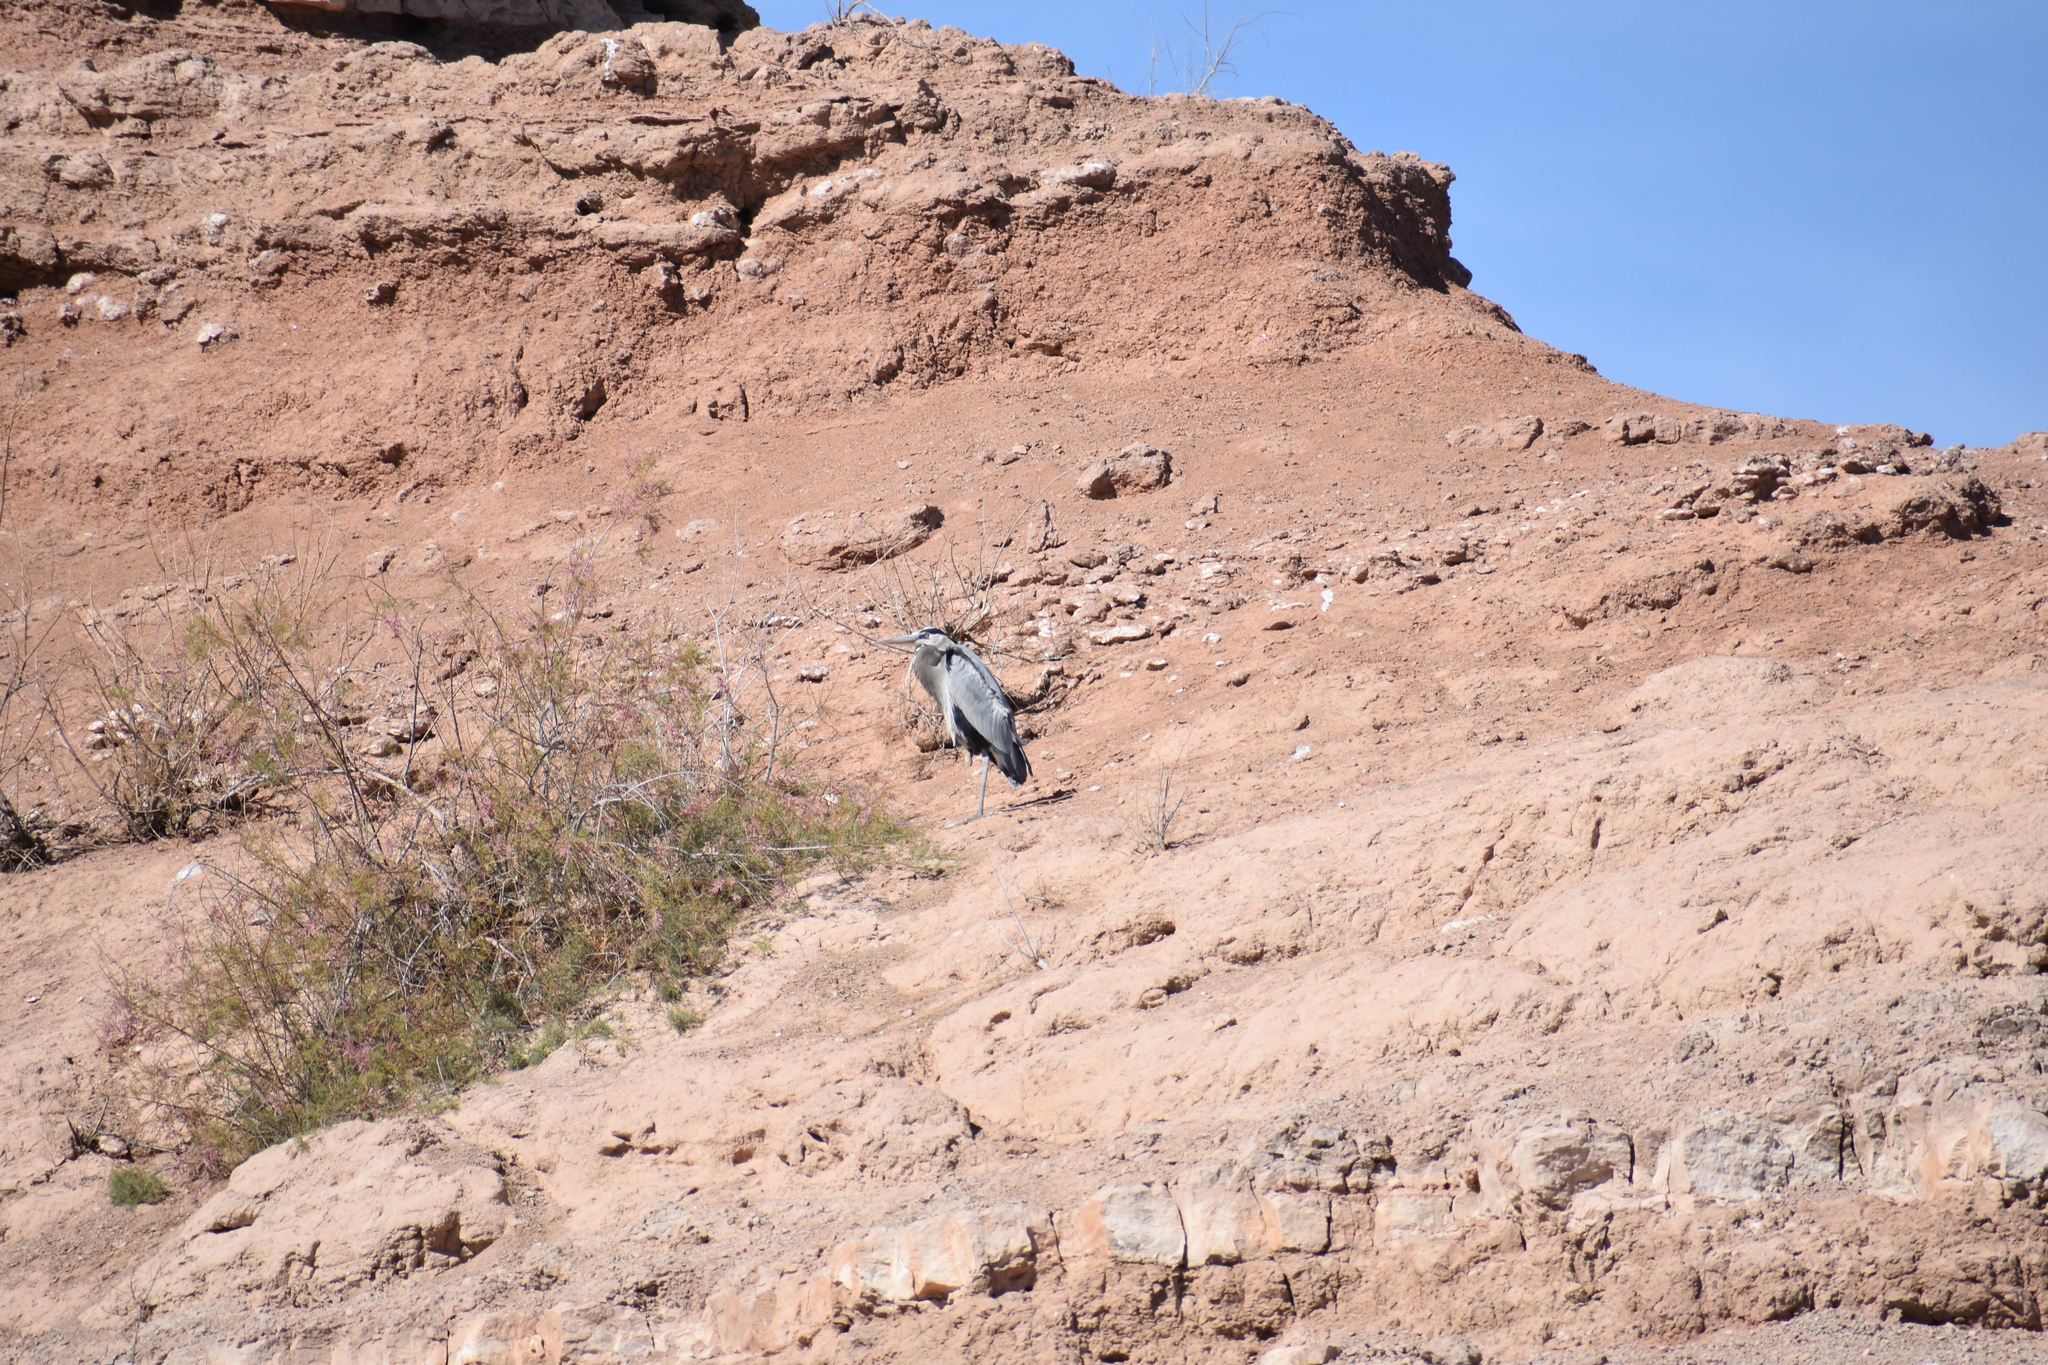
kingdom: Animalia
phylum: Chordata
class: Aves
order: Pelecaniformes
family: Ardeidae
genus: Ardea
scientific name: Ardea herodias
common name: Great blue heron
